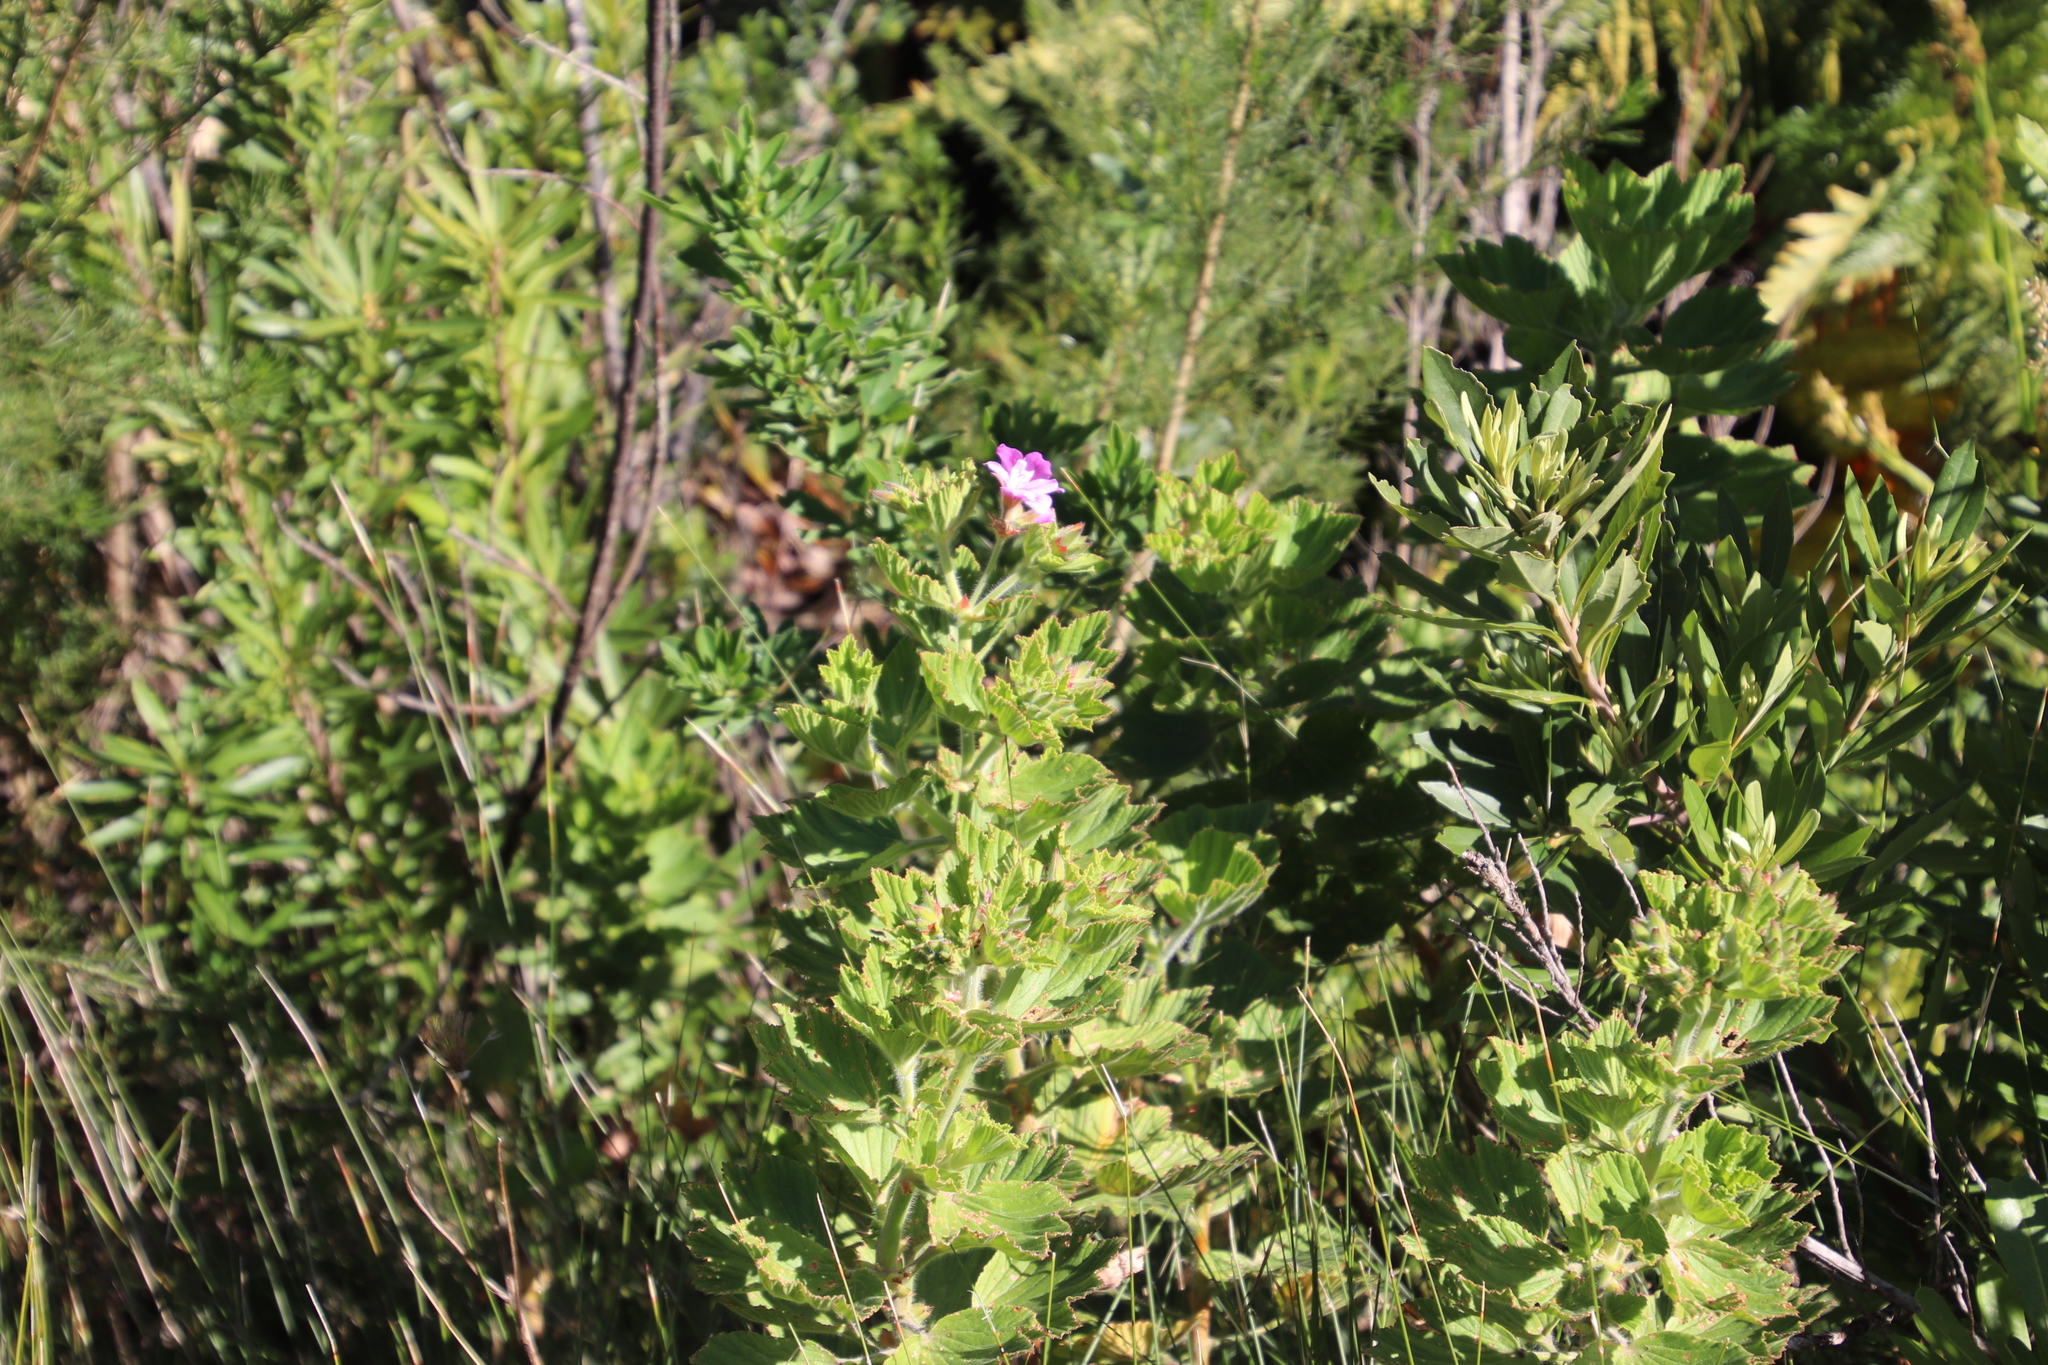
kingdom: Plantae
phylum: Tracheophyta
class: Magnoliopsida
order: Geraniales
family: Geraniaceae
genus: Pelargonium
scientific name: Pelargonium cucullatum
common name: Tree pelargonium
